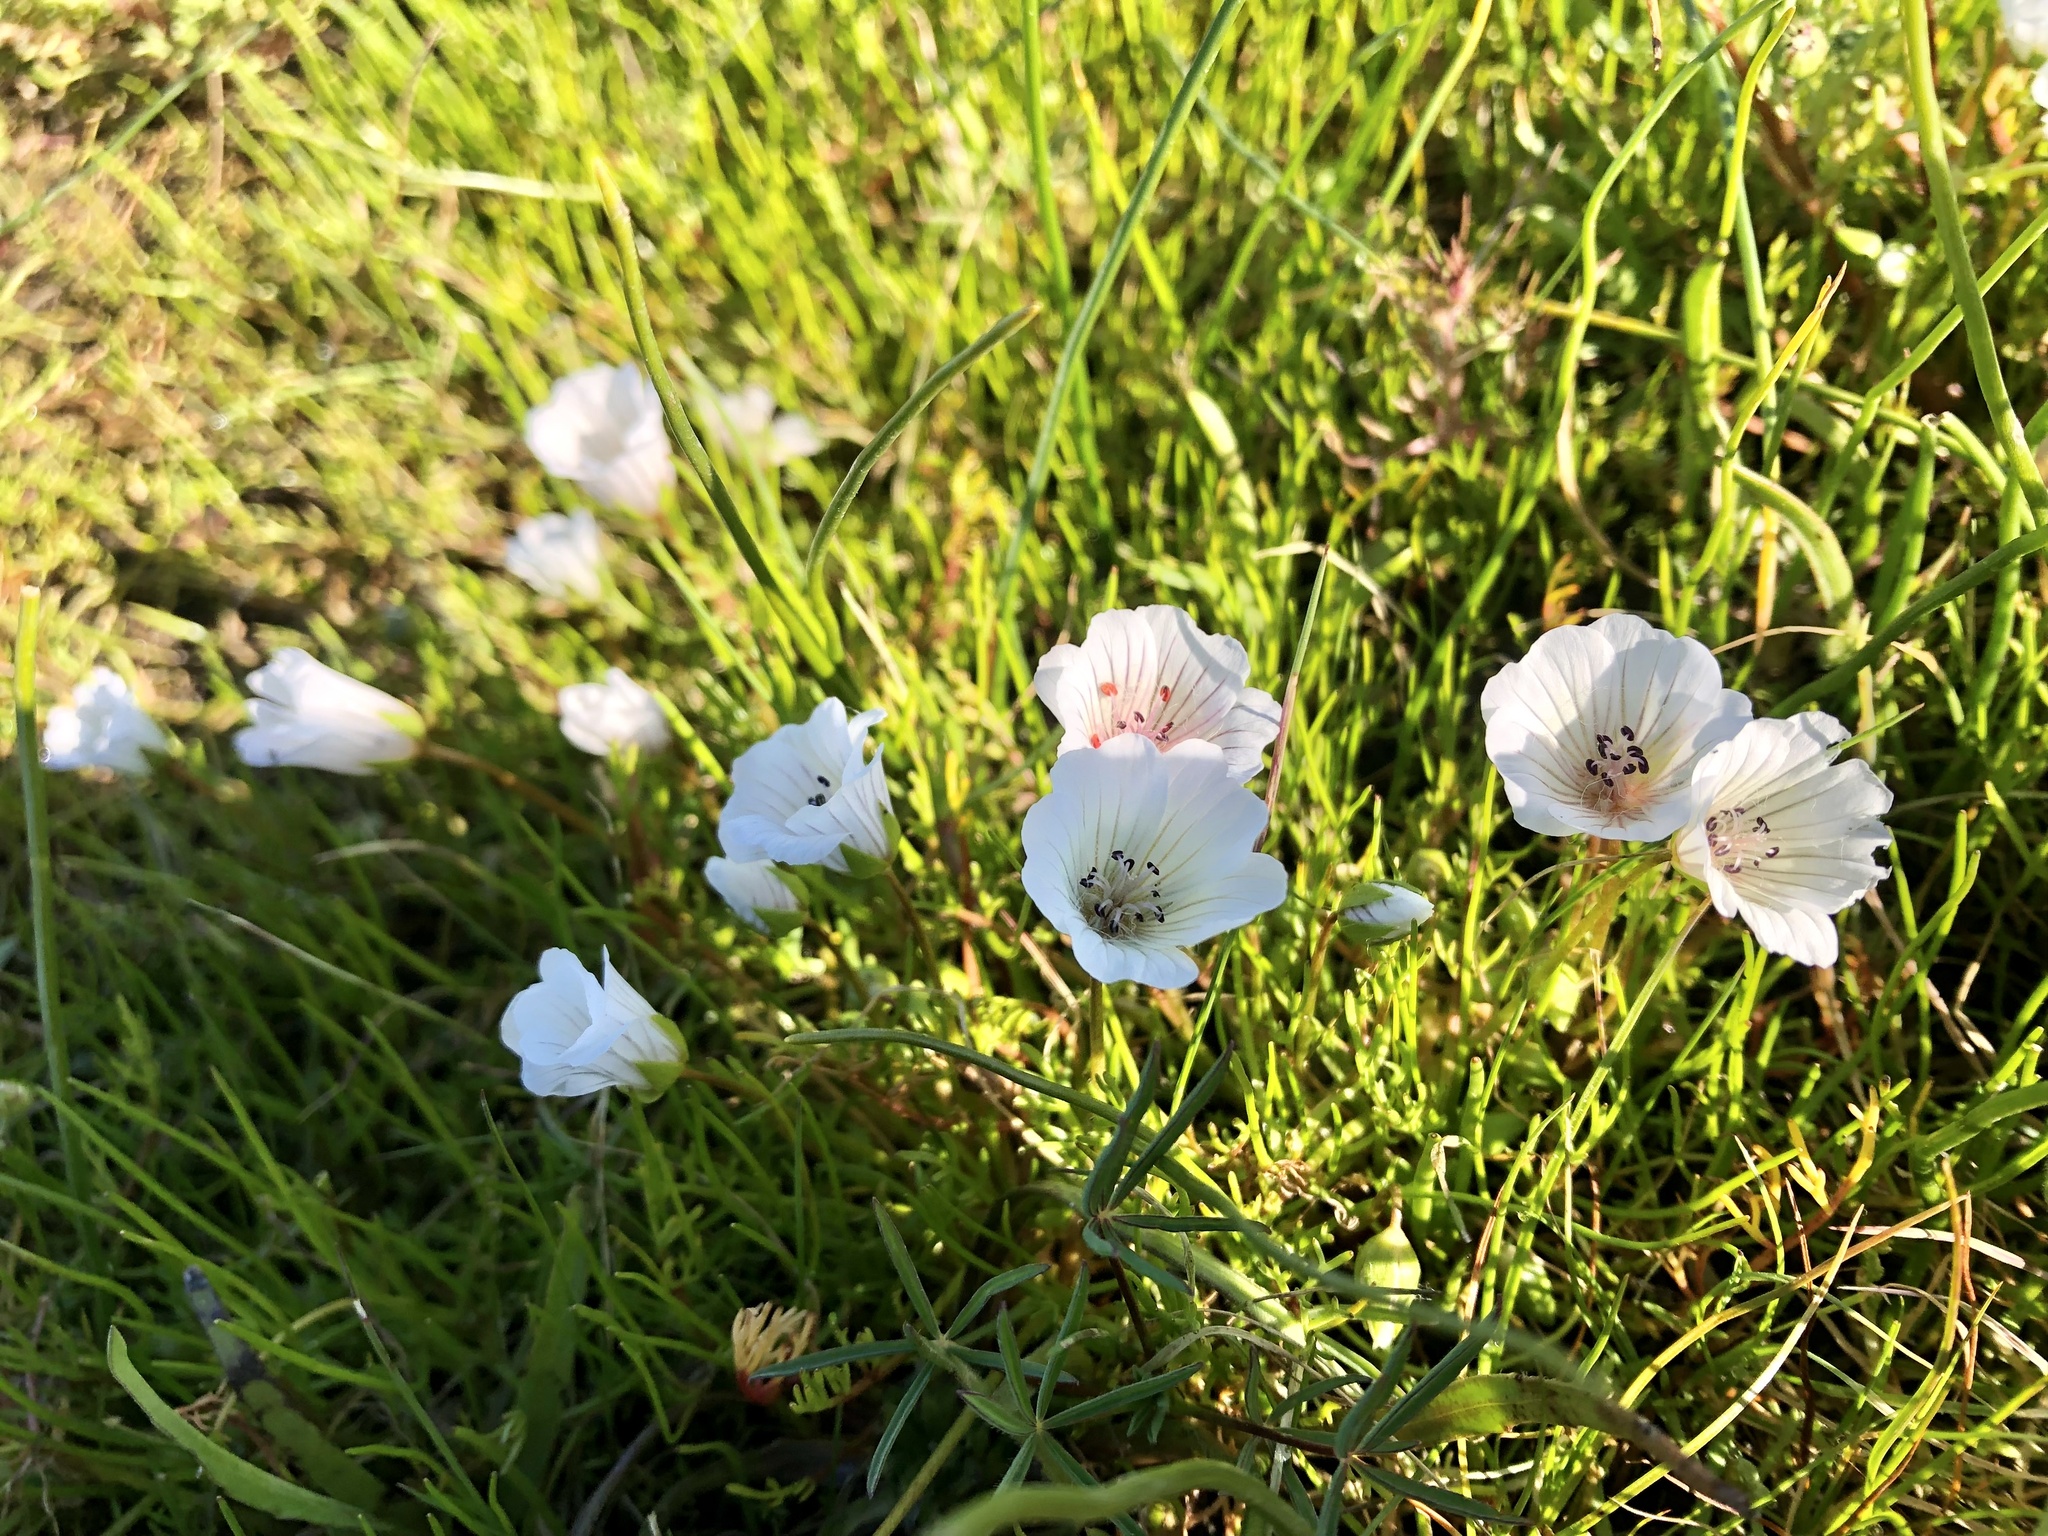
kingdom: Plantae
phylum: Tracheophyta
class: Magnoliopsida
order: Brassicales
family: Limnanthaceae
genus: Limnanthes
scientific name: Limnanthes douglasii
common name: Meadow-foam
